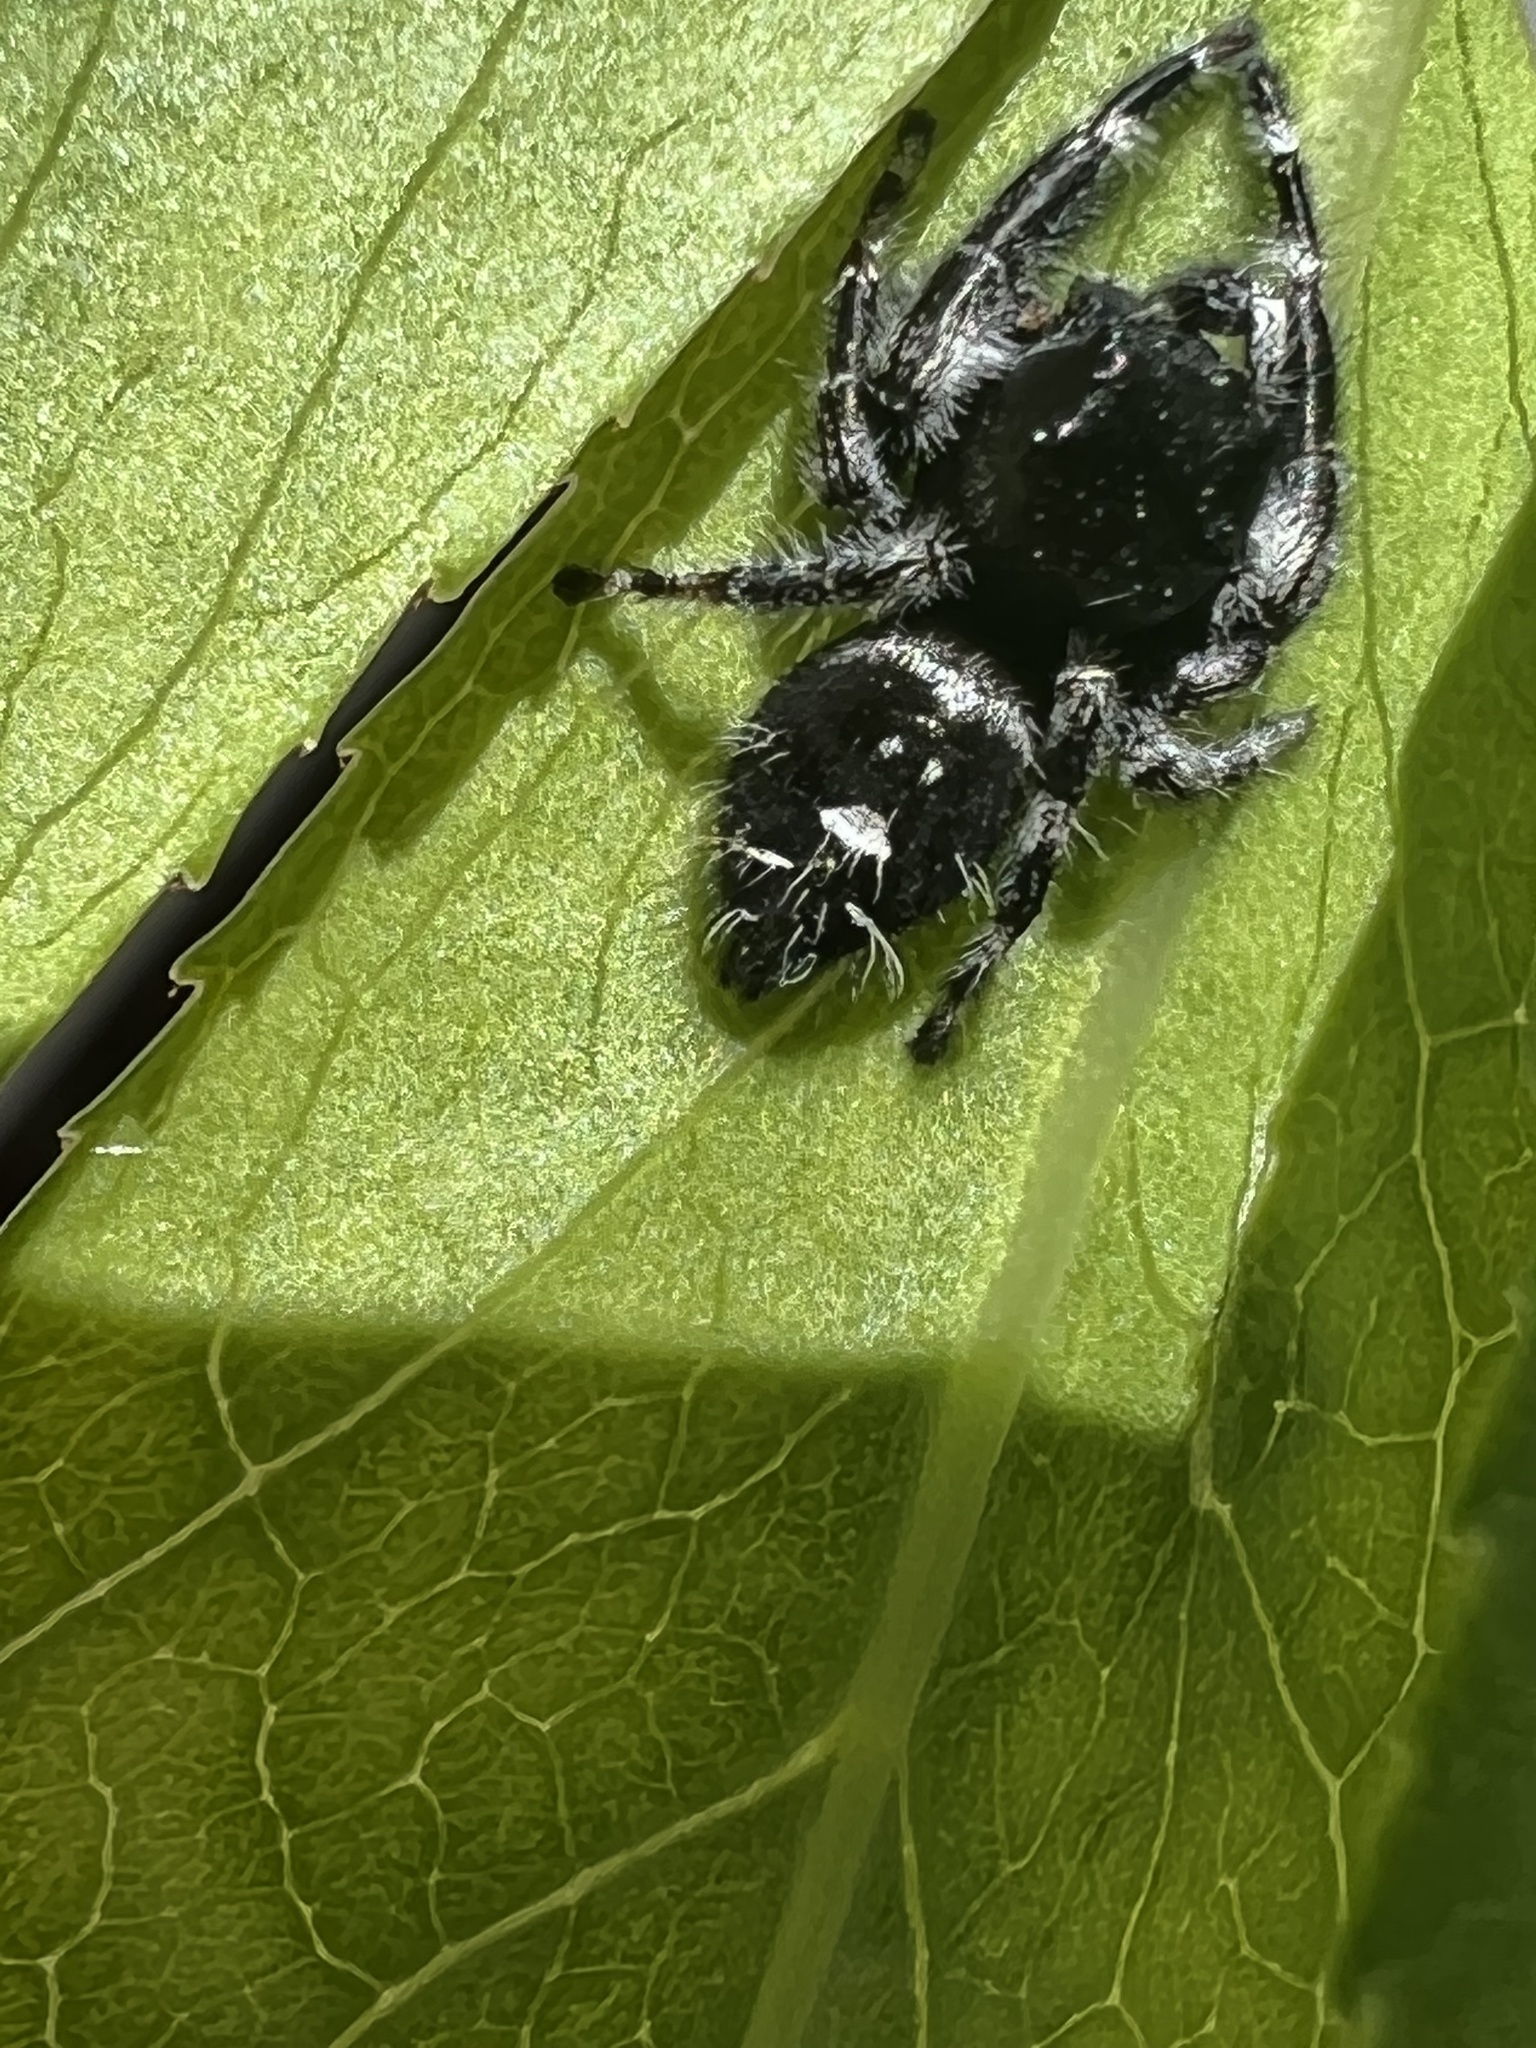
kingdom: Animalia
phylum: Arthropoda
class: Arachnida
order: Araneae
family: Salticidae
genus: Phidippus
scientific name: Phidippus audax
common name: Bold jumper
